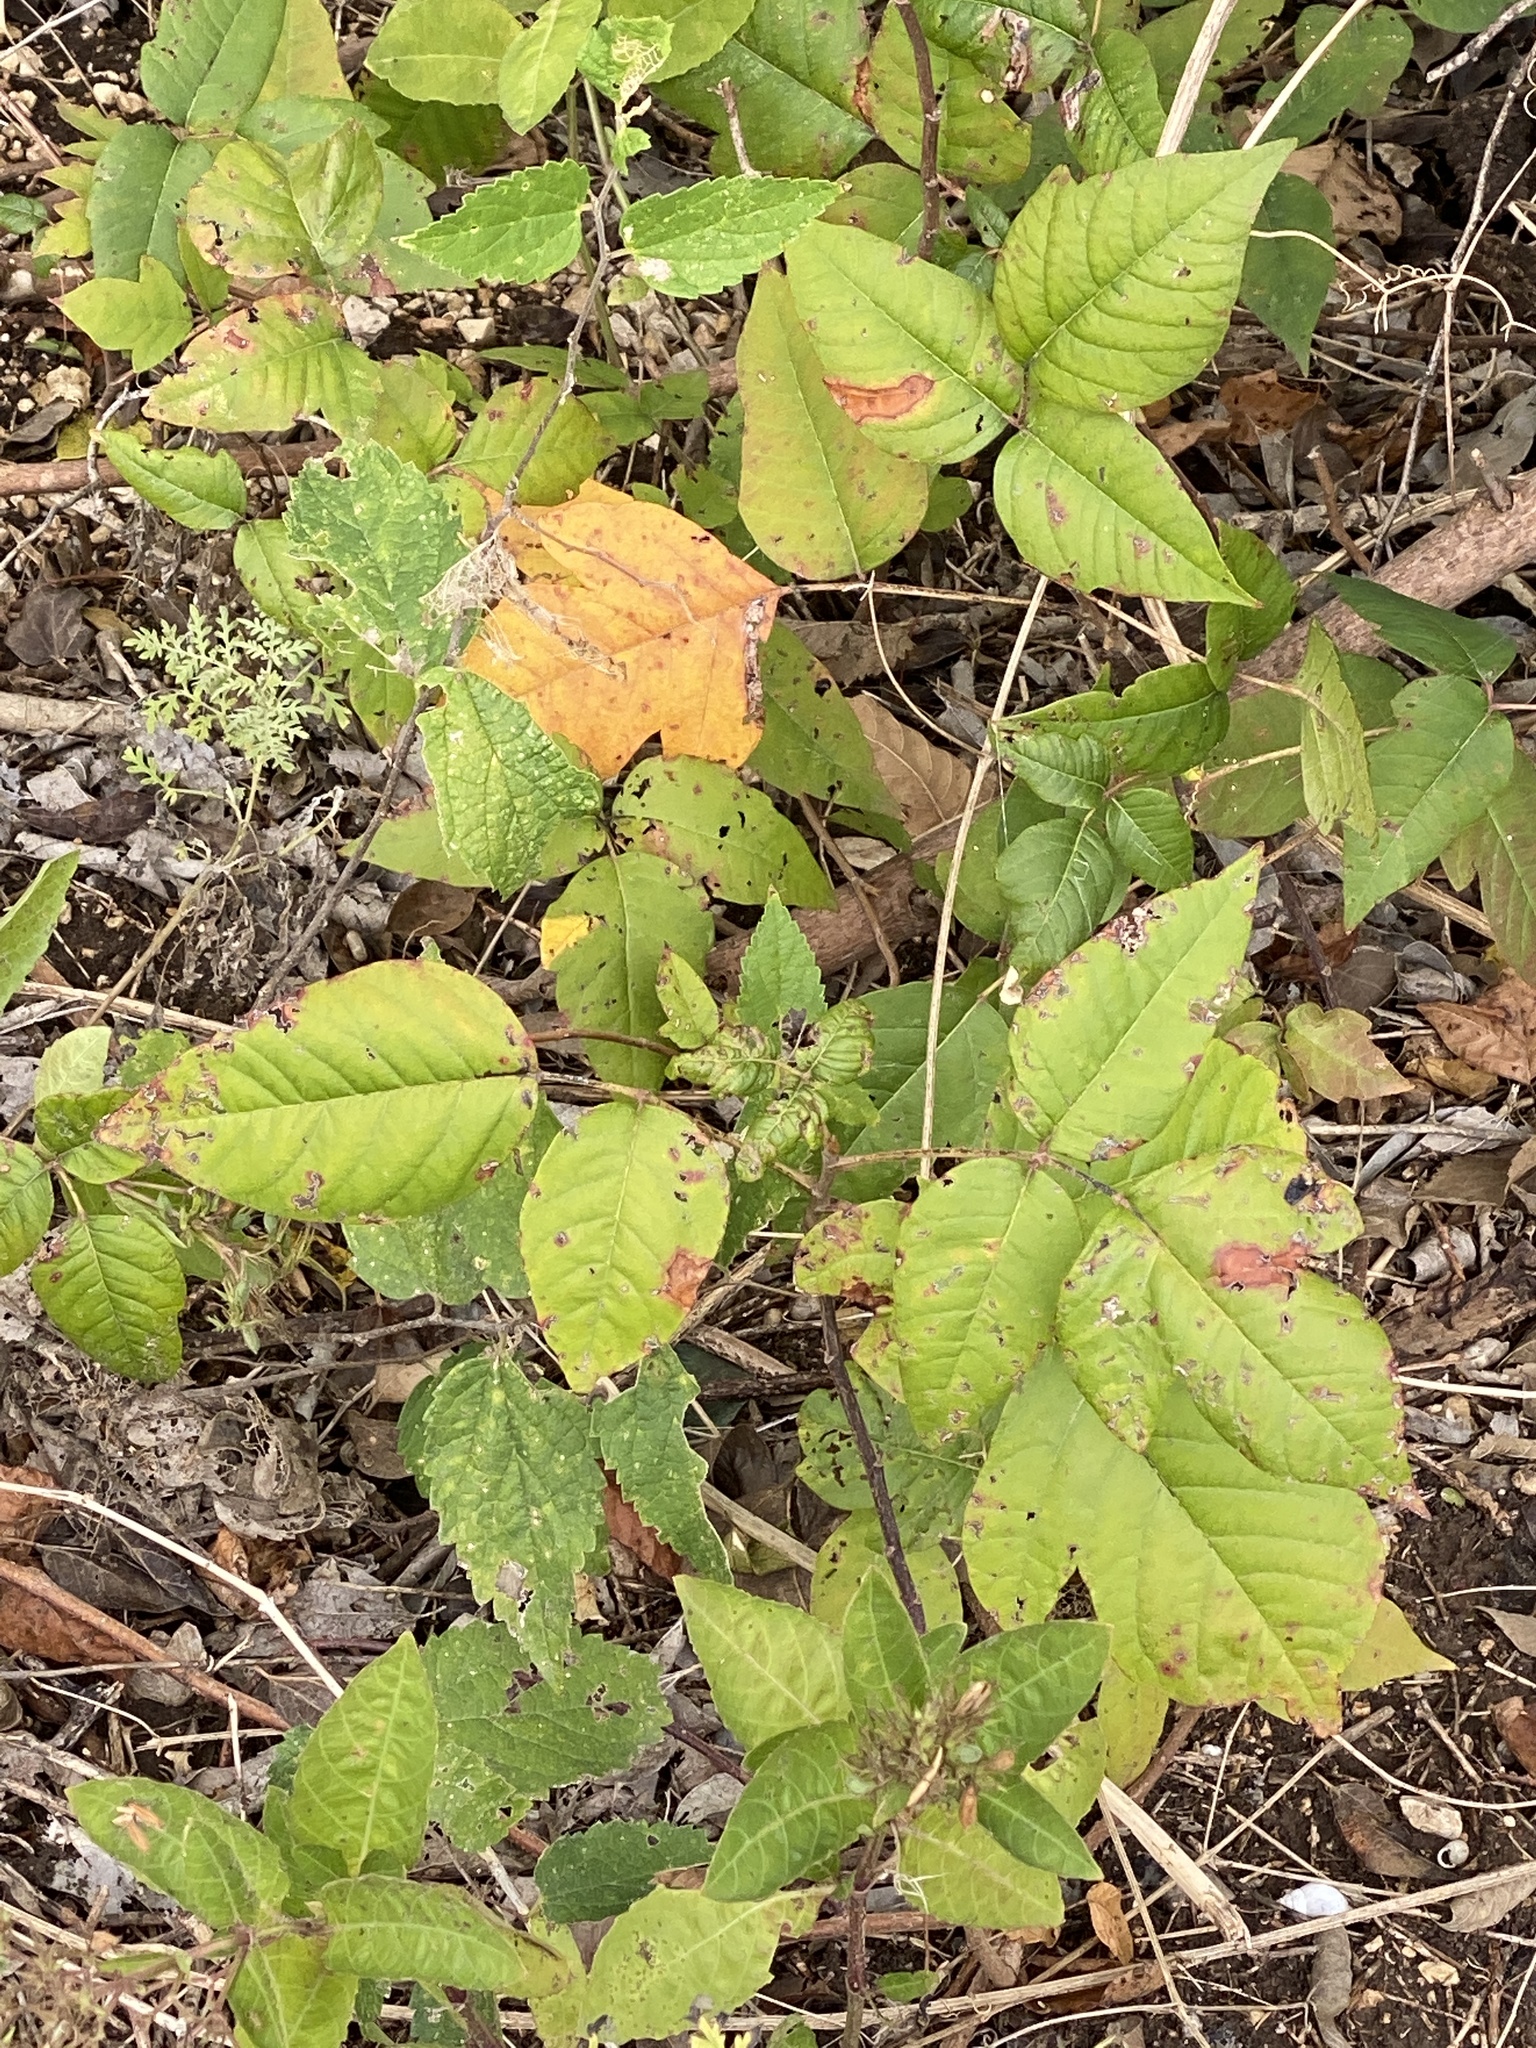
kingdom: Plantae
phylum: Tracheophyta
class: Magnoliopsida
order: Sapindales
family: Anacardiaceae
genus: Toxicodendron
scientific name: Toxicodendron radicans
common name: Poison ivy
